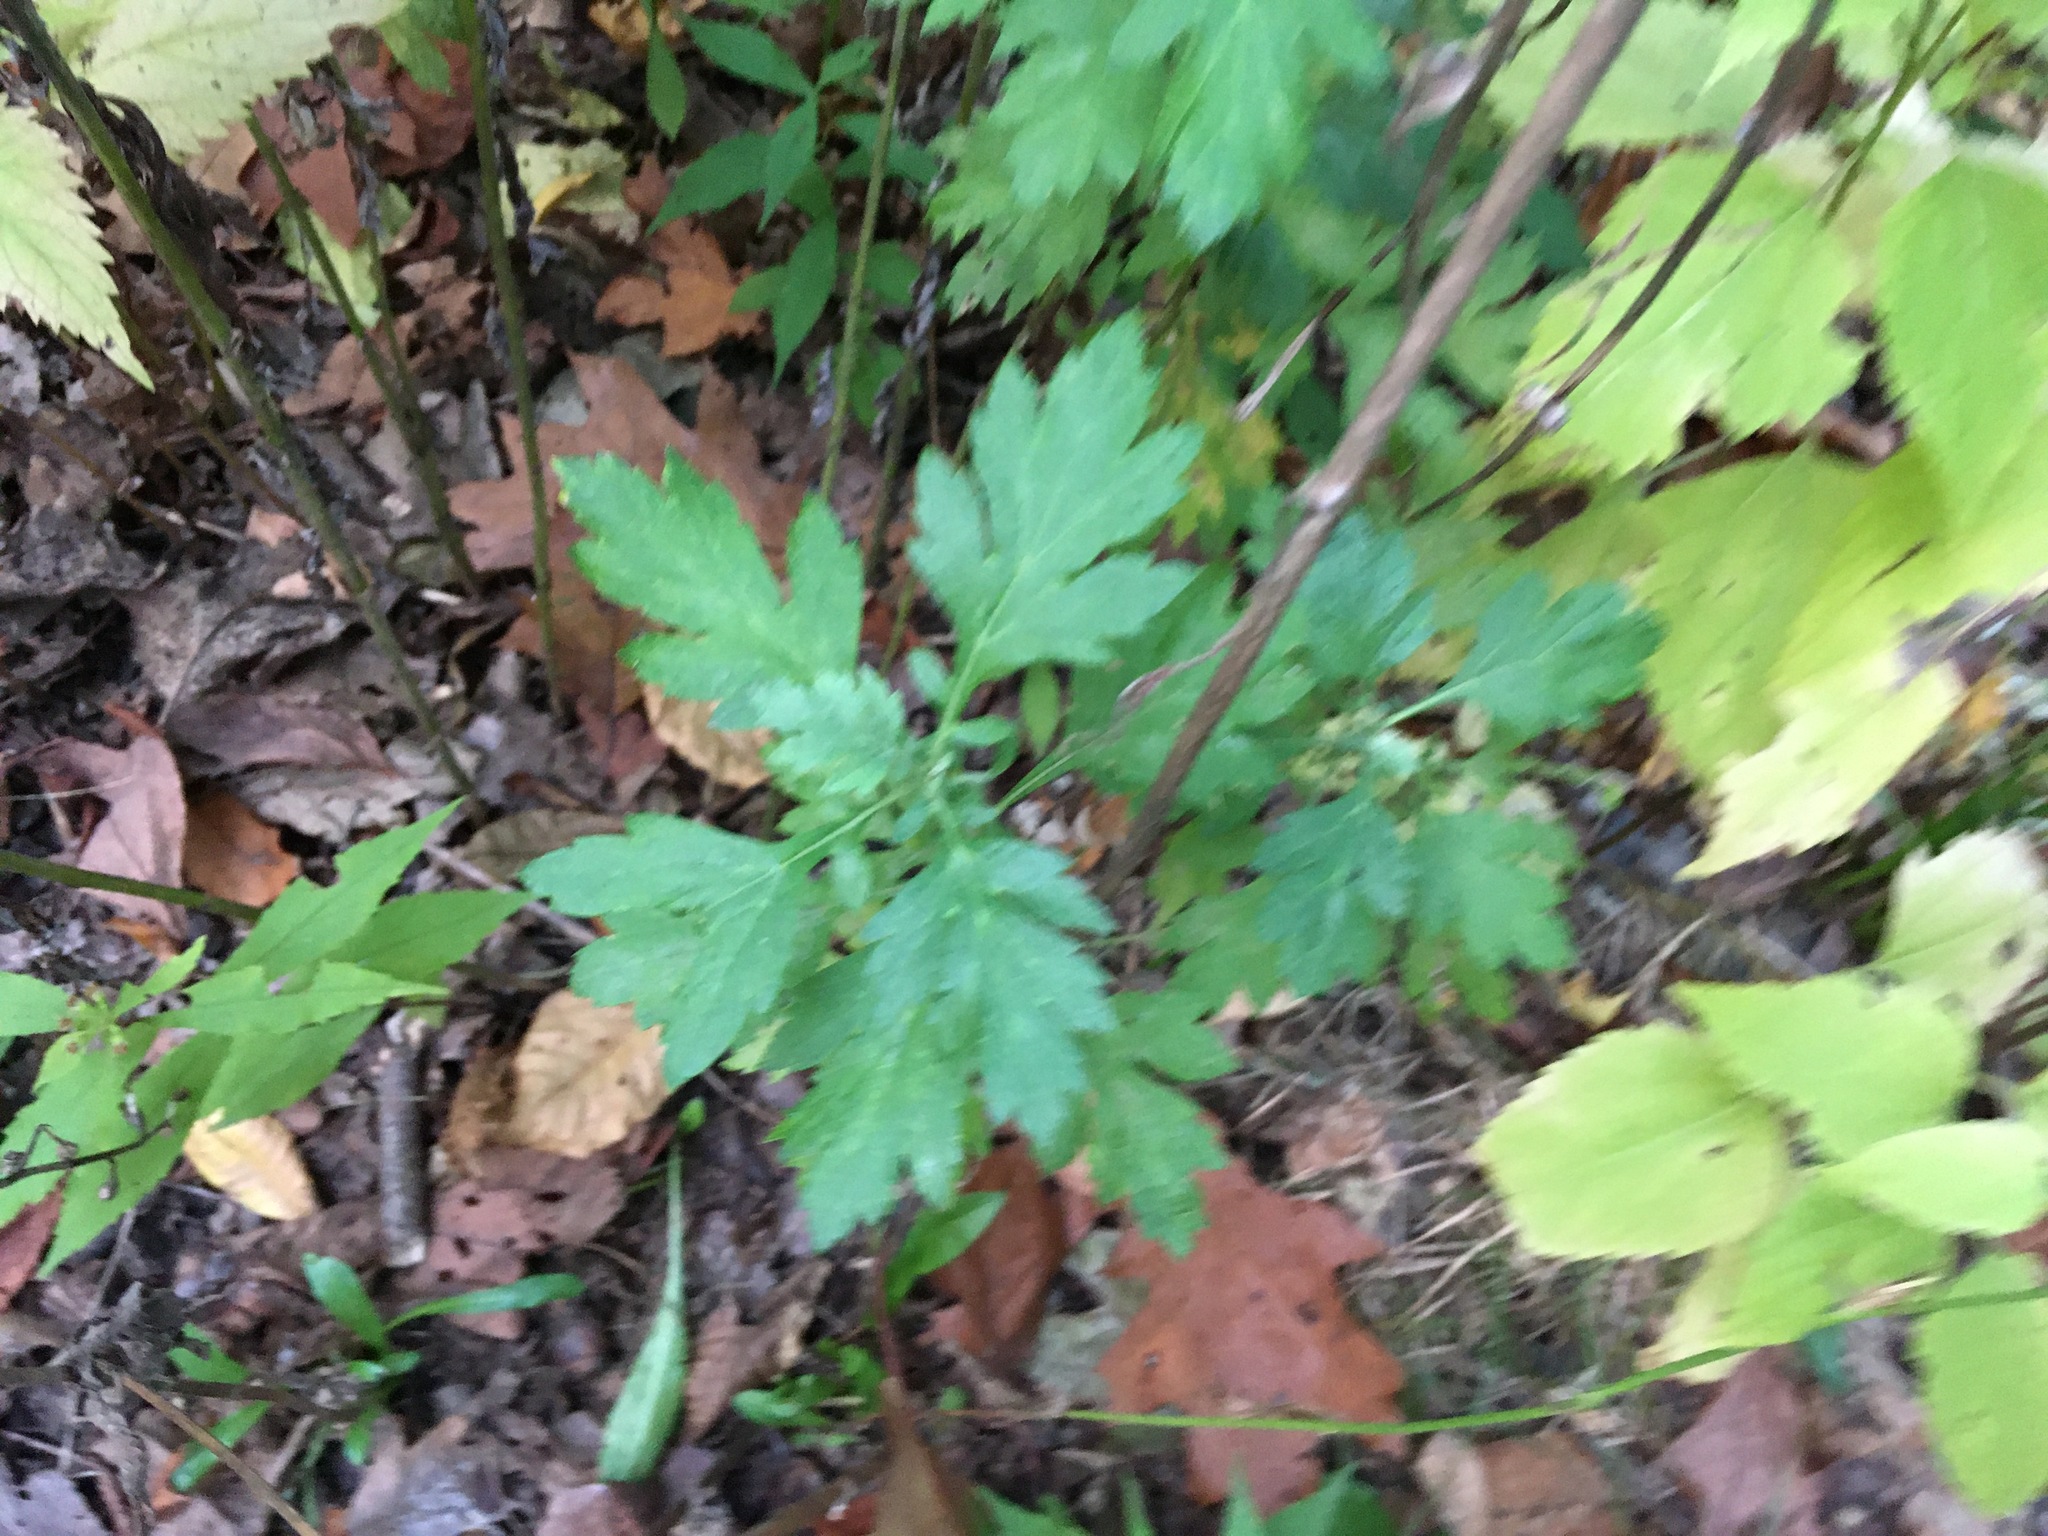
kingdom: Plantae
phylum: Tracheophyta
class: Magnoliopsida
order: Asterales
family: Asteraceae
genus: Artemisia
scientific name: Artemisia vulgaris
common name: Mugwort
